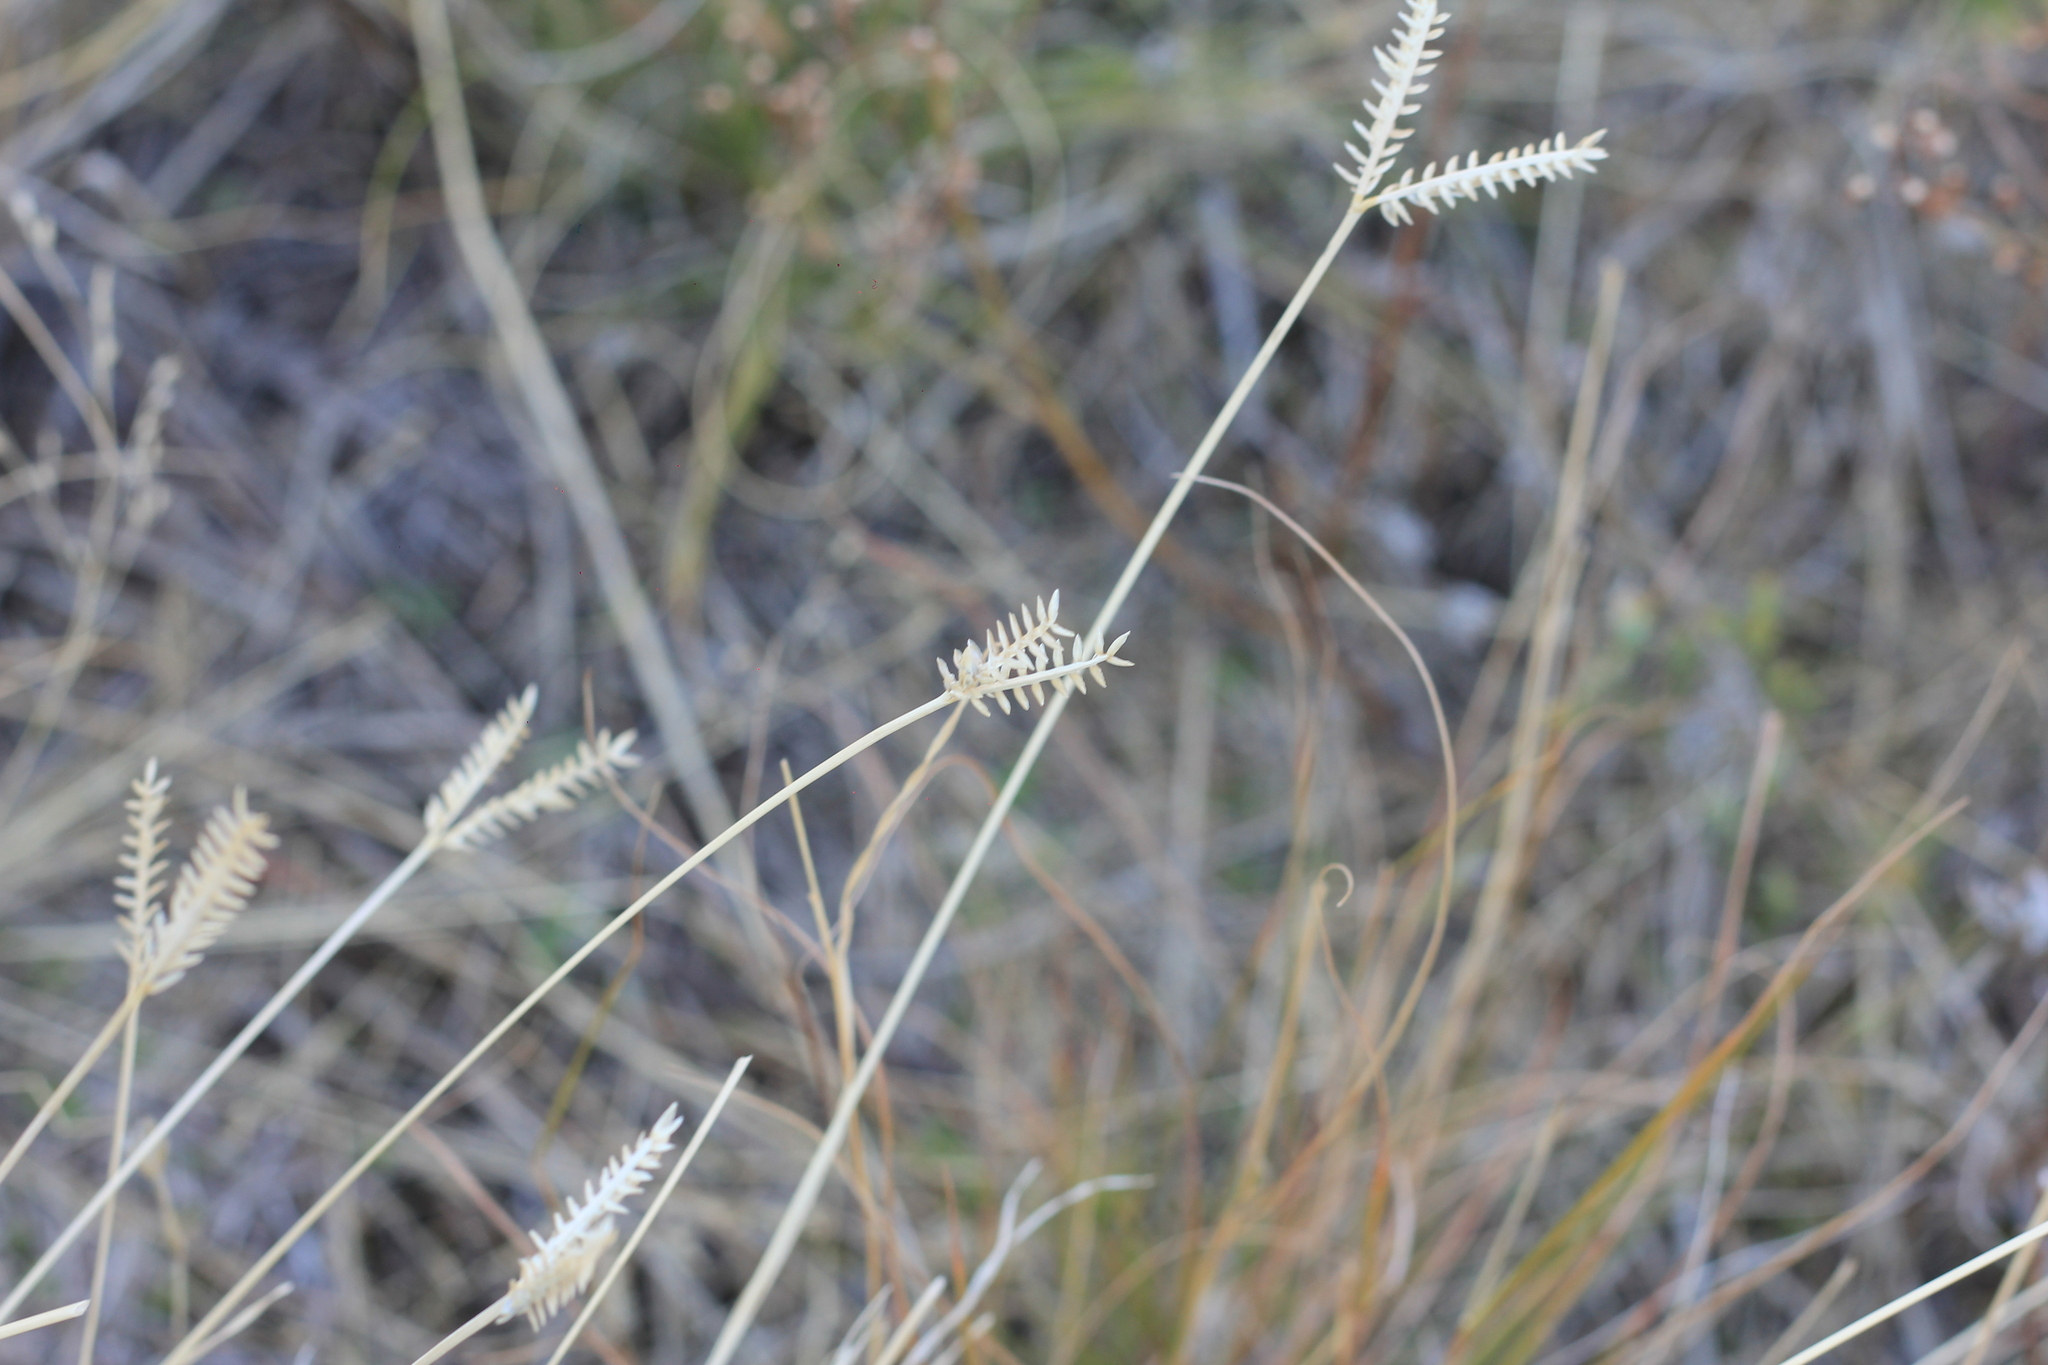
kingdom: Plantae
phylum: Tracheophyta
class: Liliopsida
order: Poales
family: Poaceae
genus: Eleusine
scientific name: Eleusine tristachya
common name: American yard-grass
